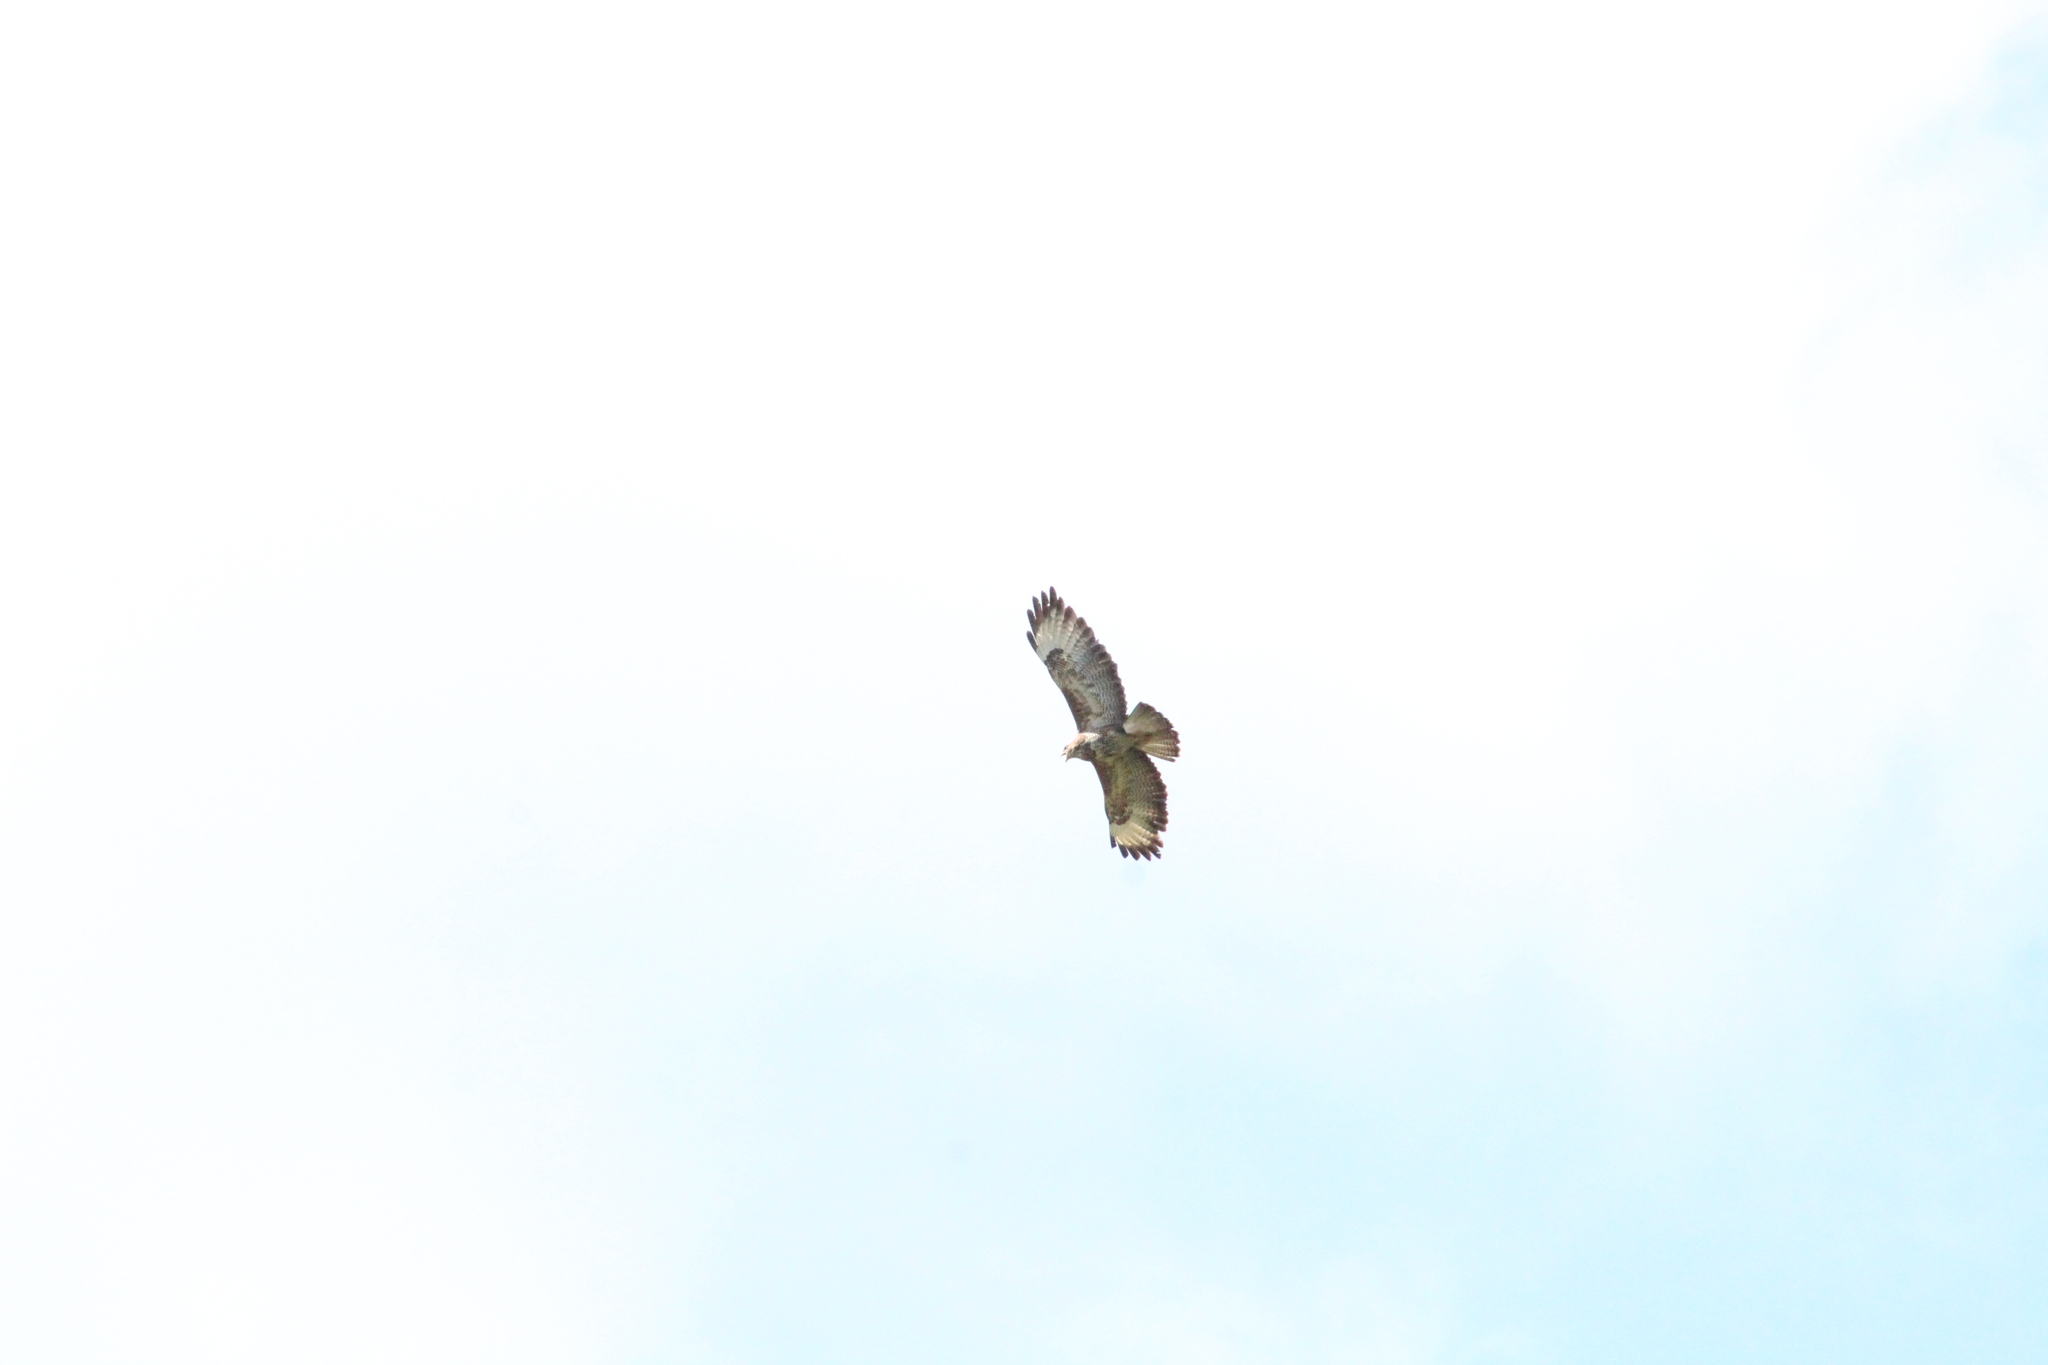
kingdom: Animalia
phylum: Chordata
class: Aves
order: Accipitriformes
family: Accipitridae
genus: Buteo
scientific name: Buteo buteo
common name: Common buzzard
